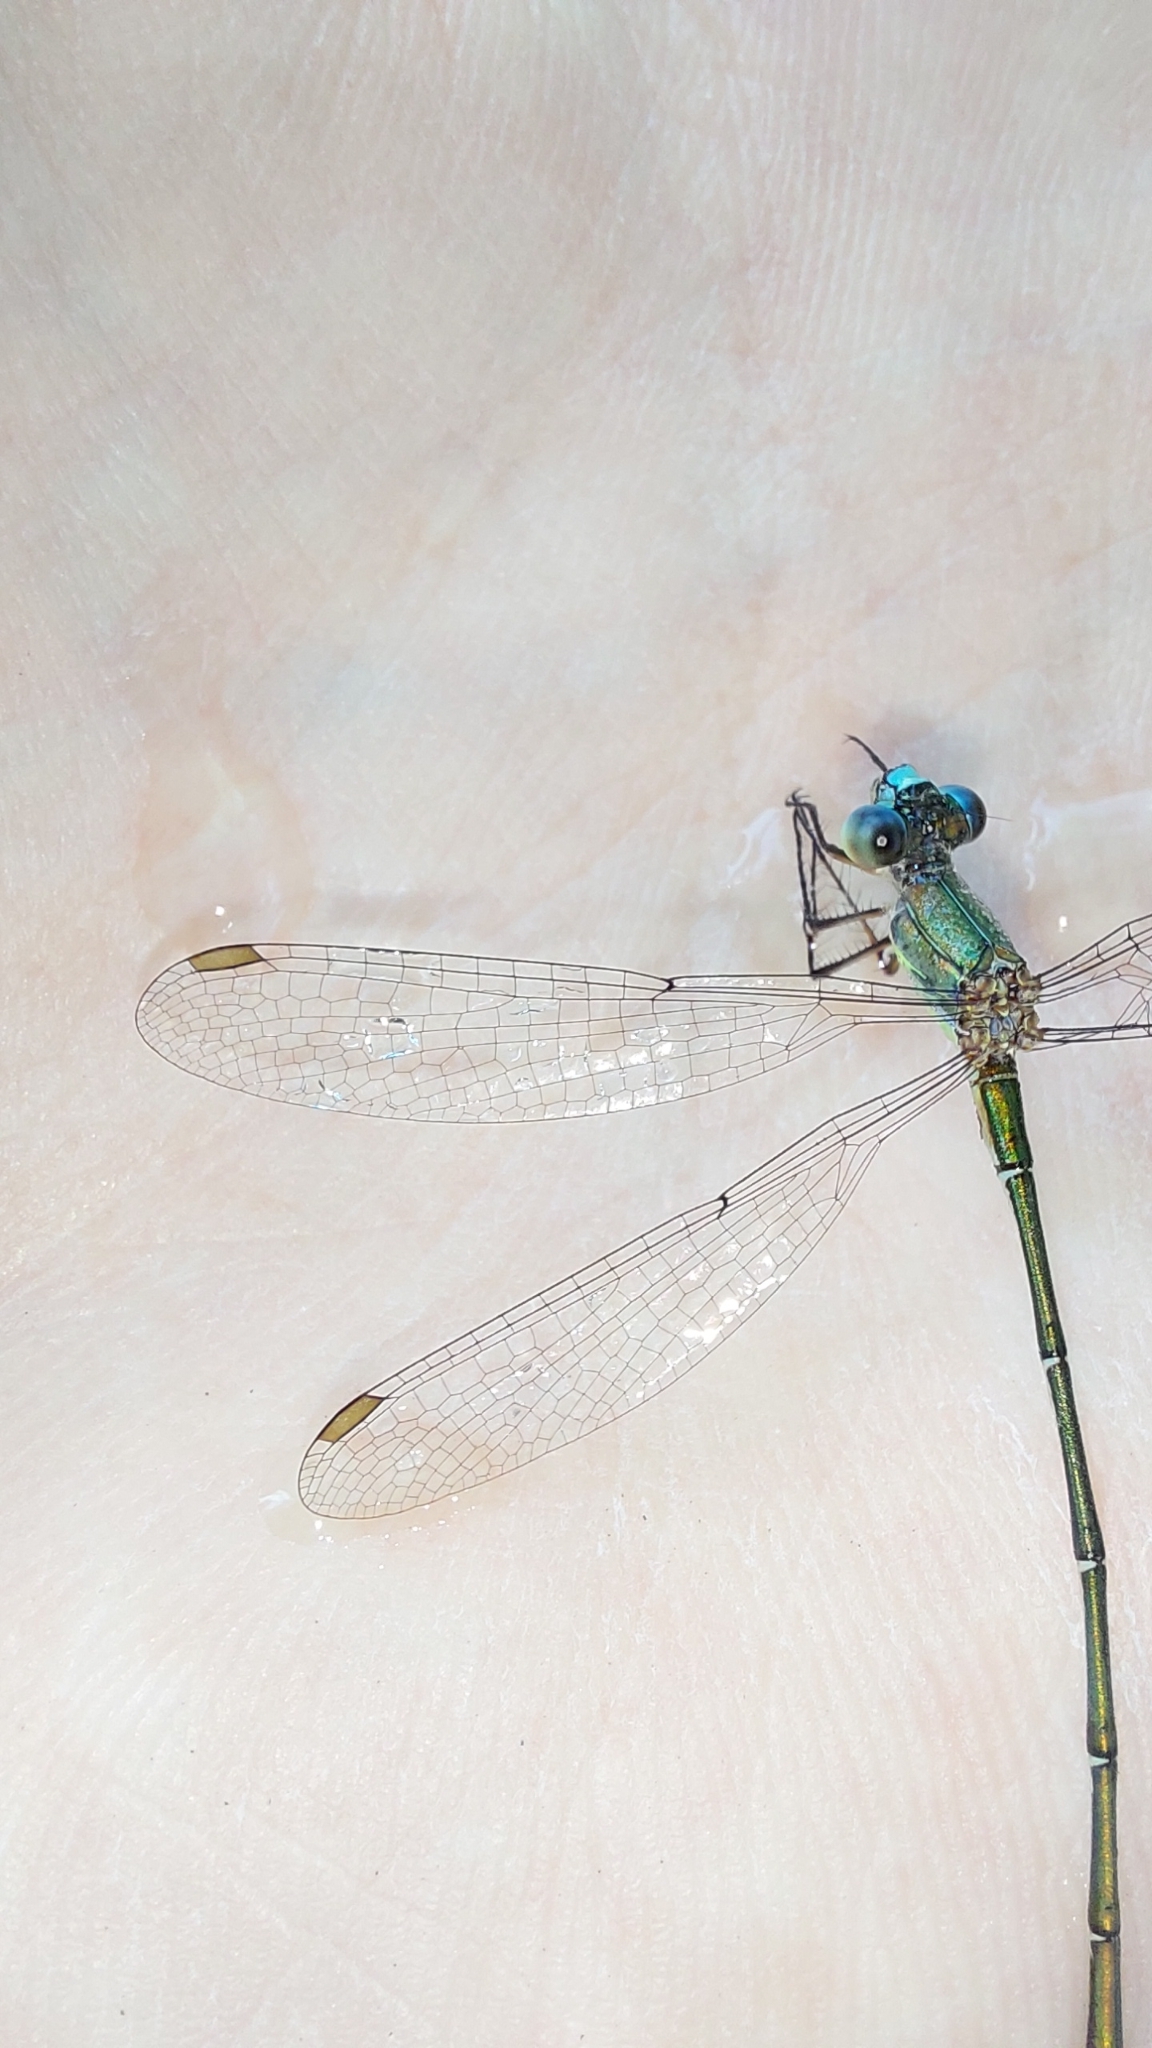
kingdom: Animalia
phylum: Arthropoda
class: Insecta
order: Odonata
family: Lestidae
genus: Chalcolestes
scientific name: Chalcolestes viridis
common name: Green emerald damselfly
